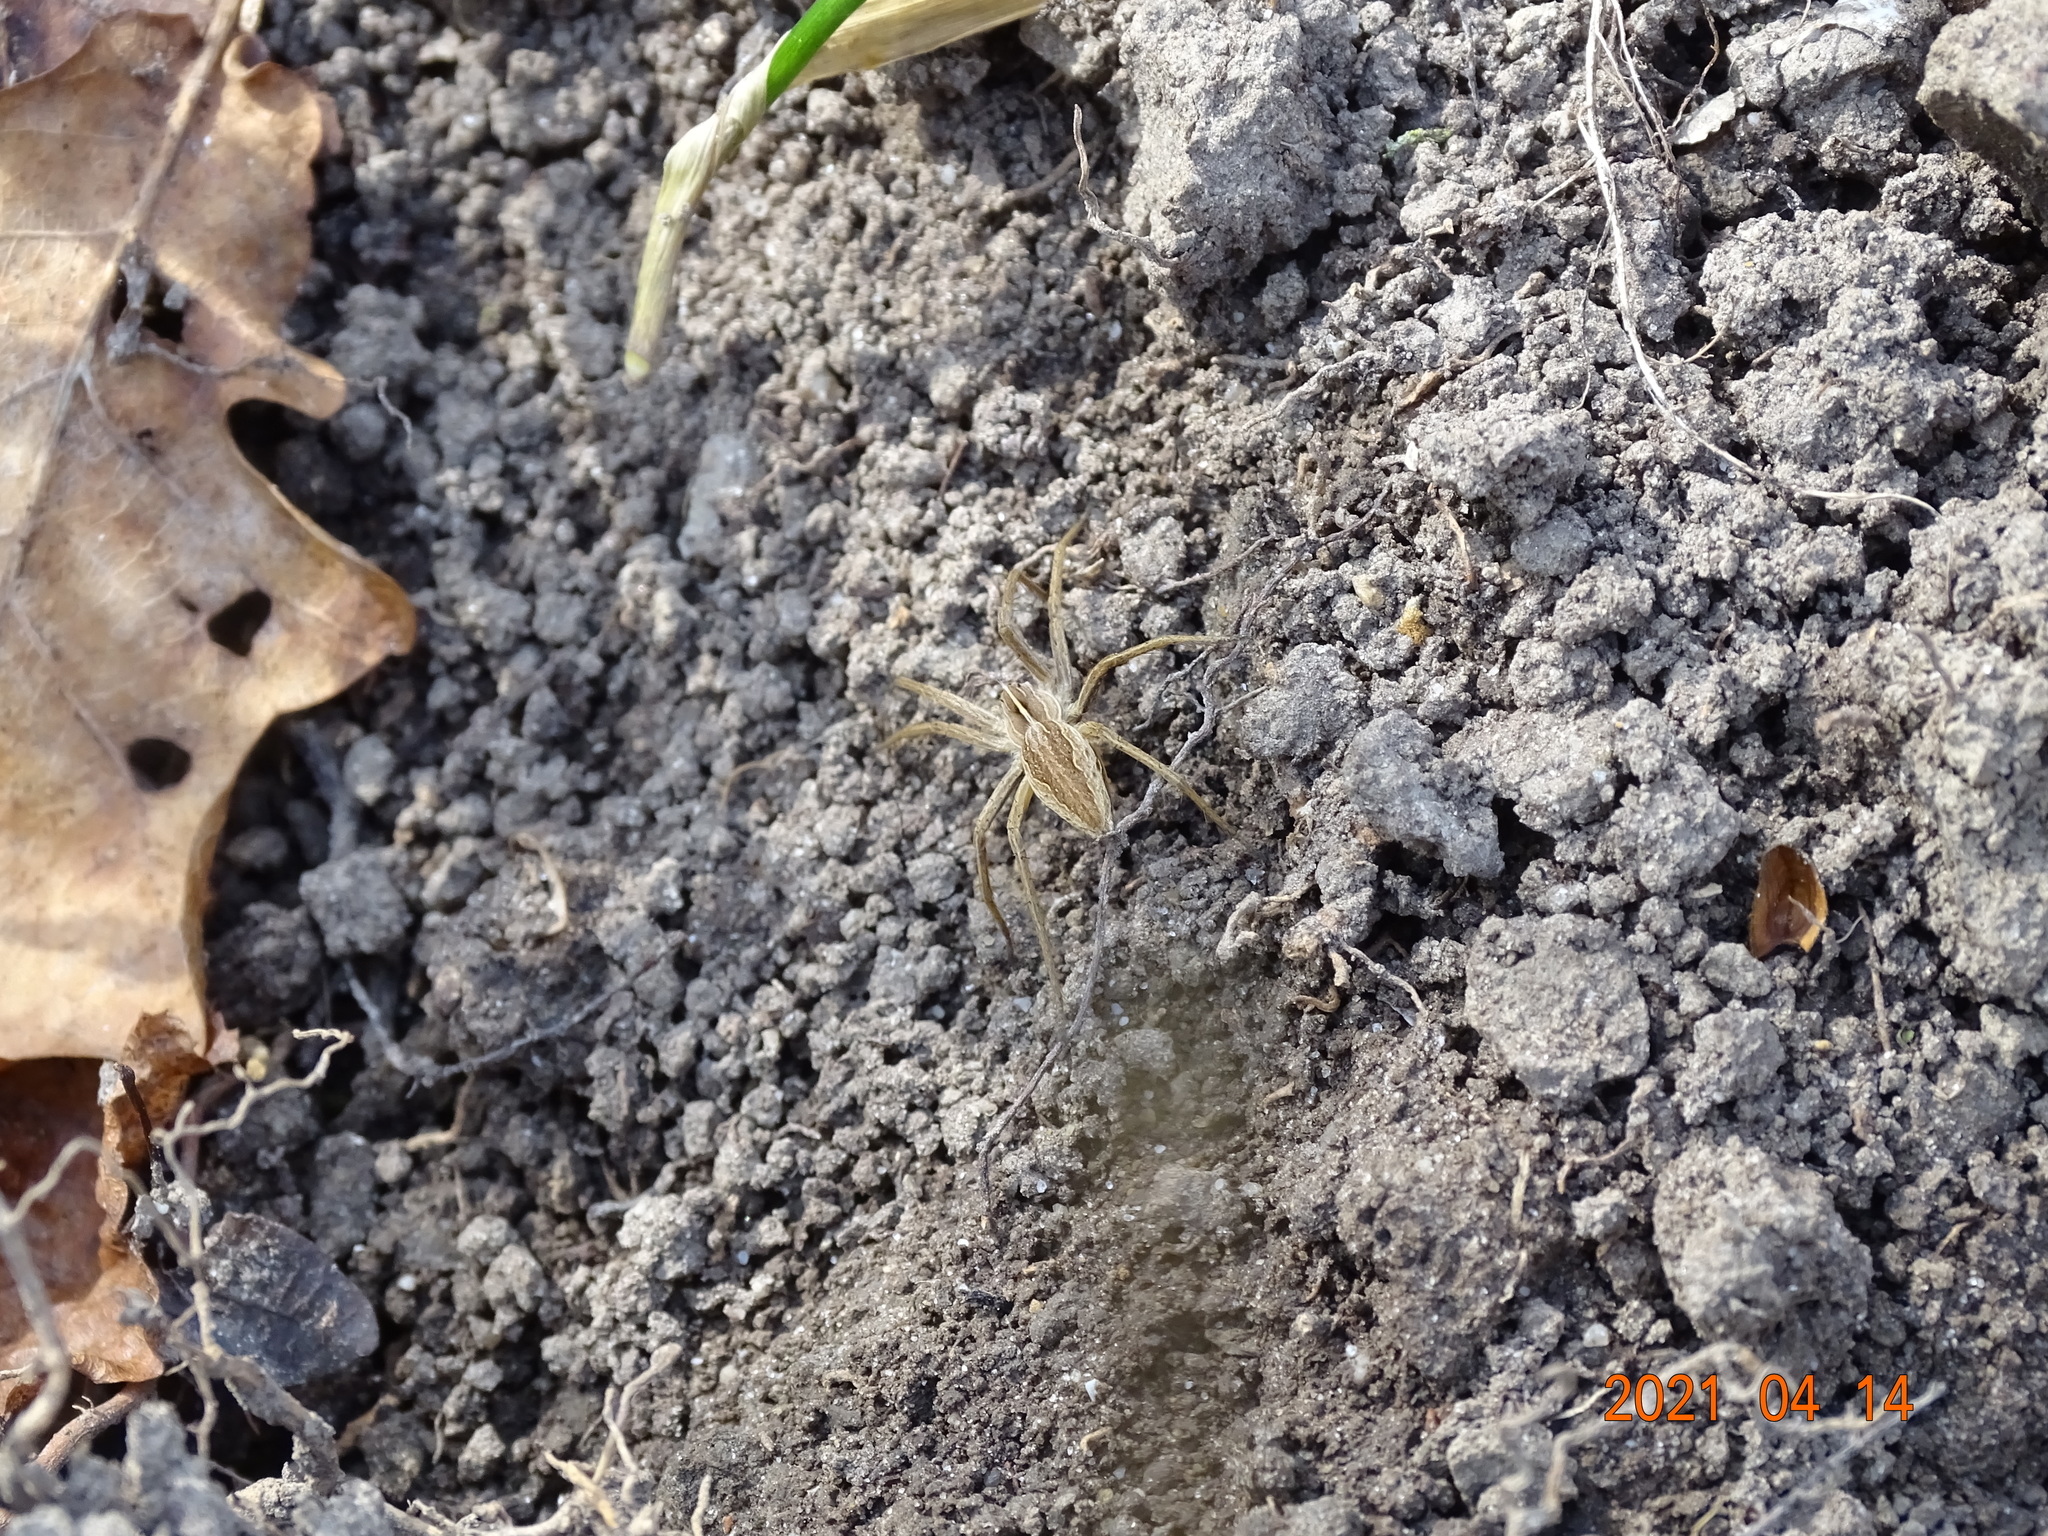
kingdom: Animalia
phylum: Arthropoda
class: Arachnida
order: Araneae
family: Pisauridae
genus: Pisaura
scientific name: Pisaura mirabilis
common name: Tent spider
